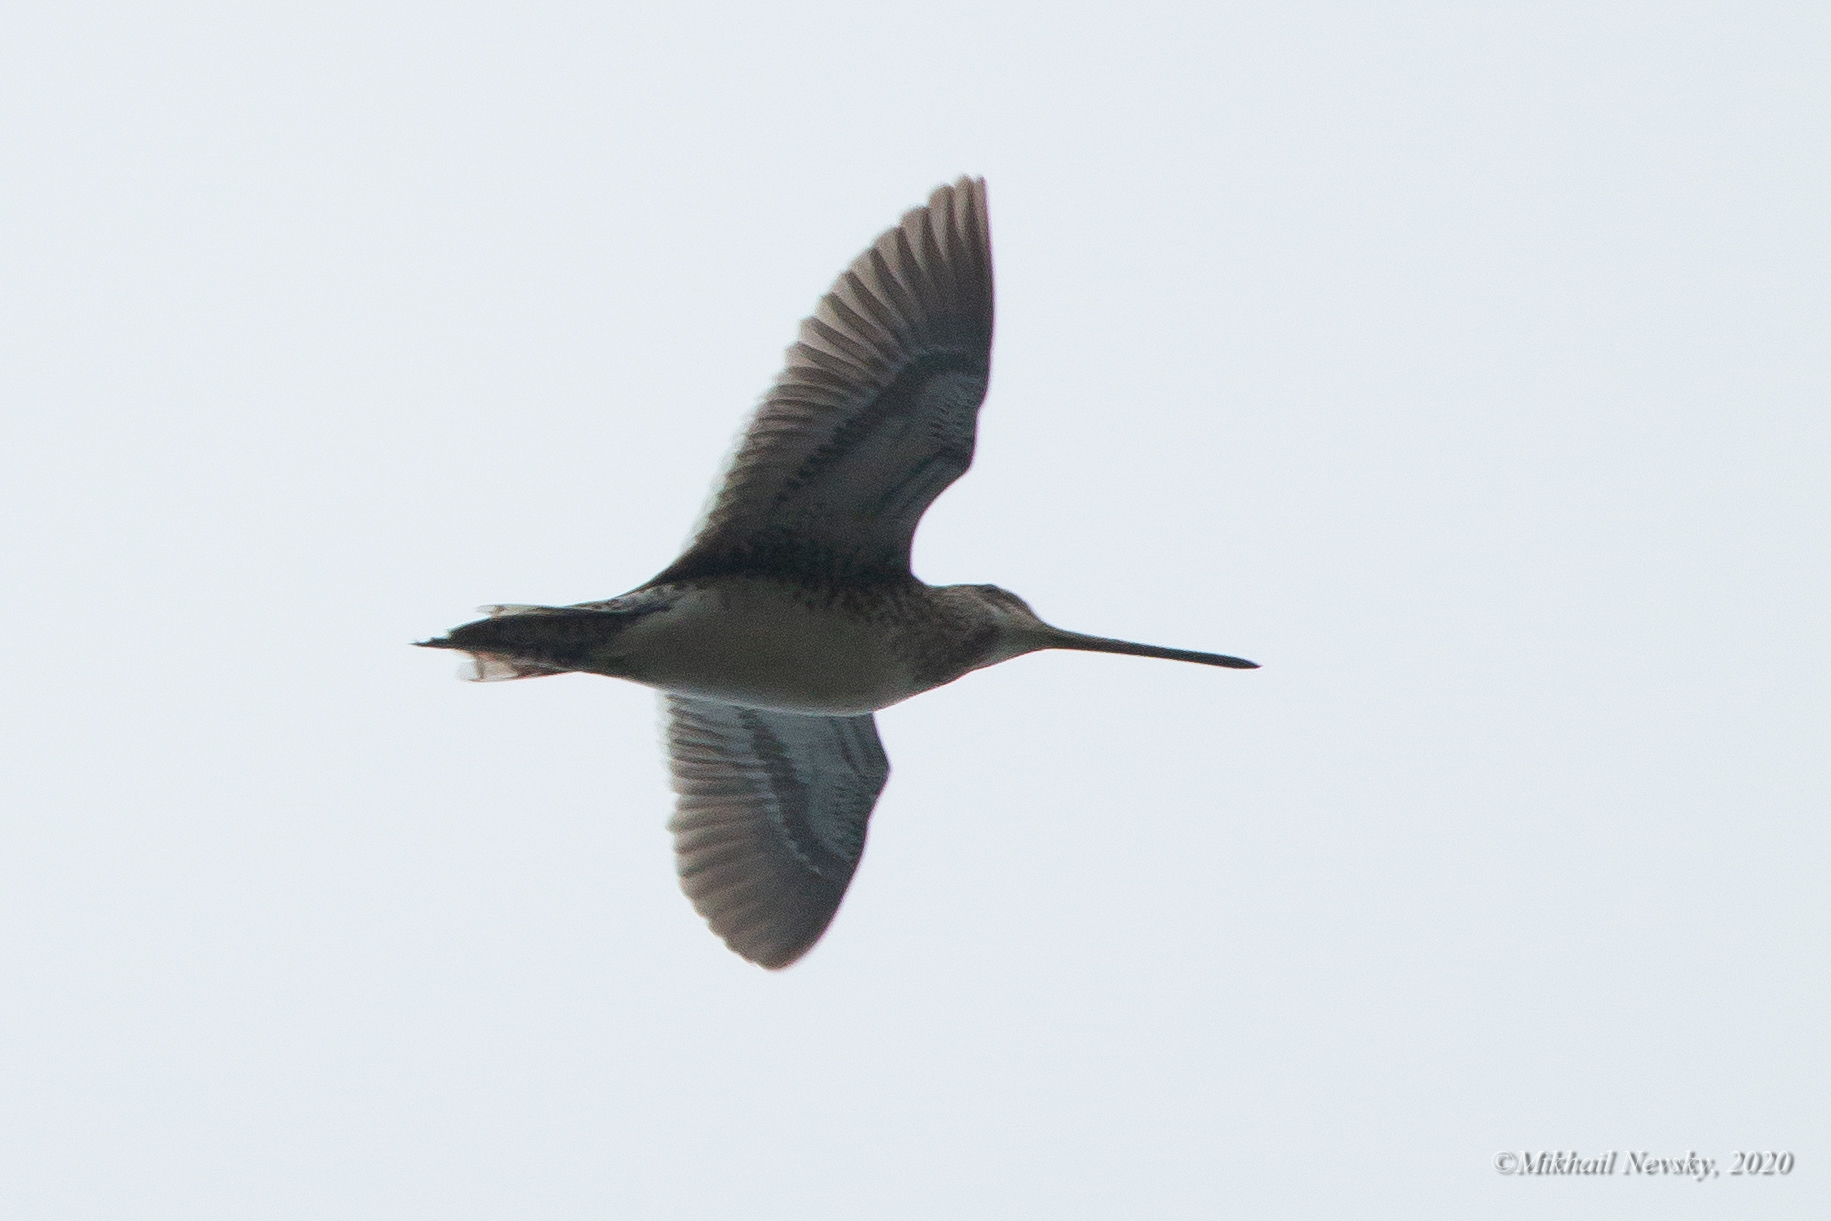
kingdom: Animalia
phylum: Chordata
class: Aves
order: Charadriiformes
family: Scolopacidae
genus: Gallinago
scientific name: Gallinago gallinago
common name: Common snipe
